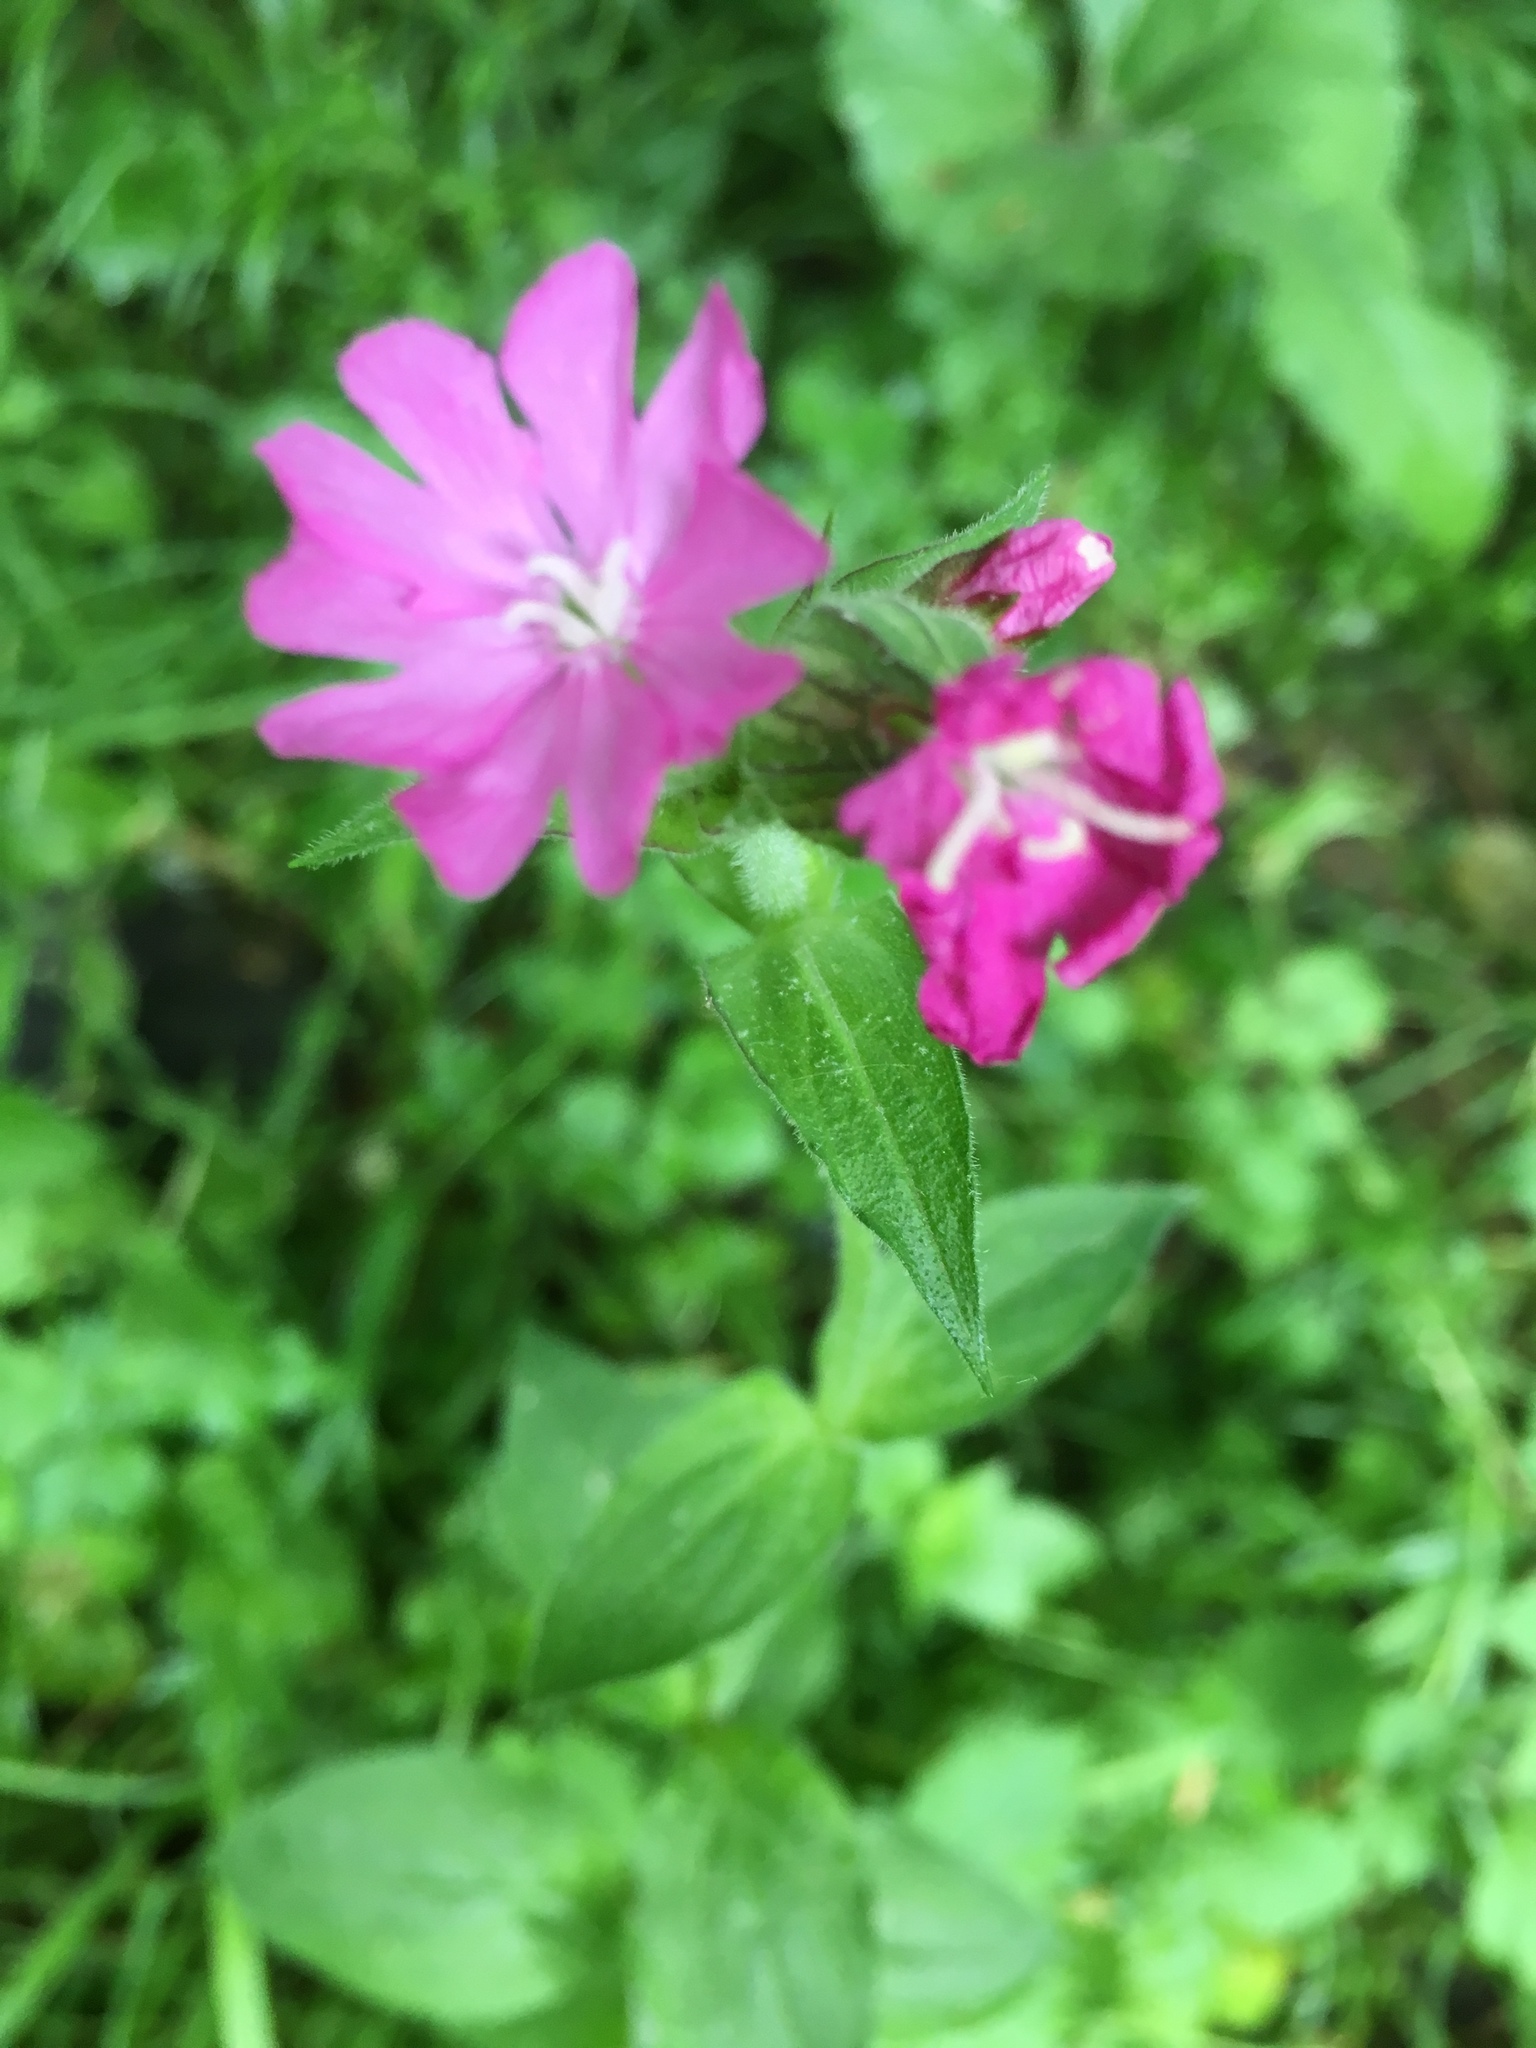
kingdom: Plantae
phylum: Tracheophyta
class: Magnoliopsida
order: Caryophyllales
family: Caryophyllaceae
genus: Silene
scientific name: Silene dioica
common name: Red campion
